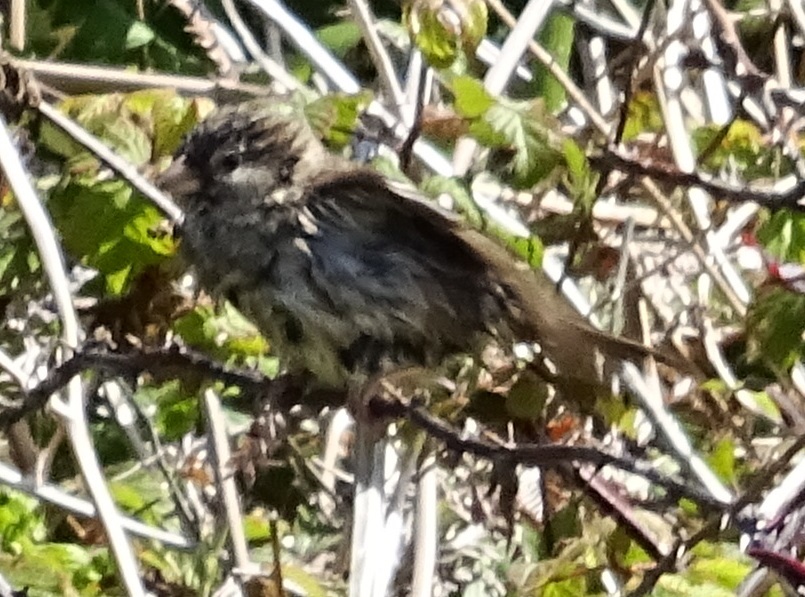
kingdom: Animalia
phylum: Chordata
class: Aves
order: Passeriformes
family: Passeridae
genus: Passer
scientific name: Passer domesticus
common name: House sparrow
